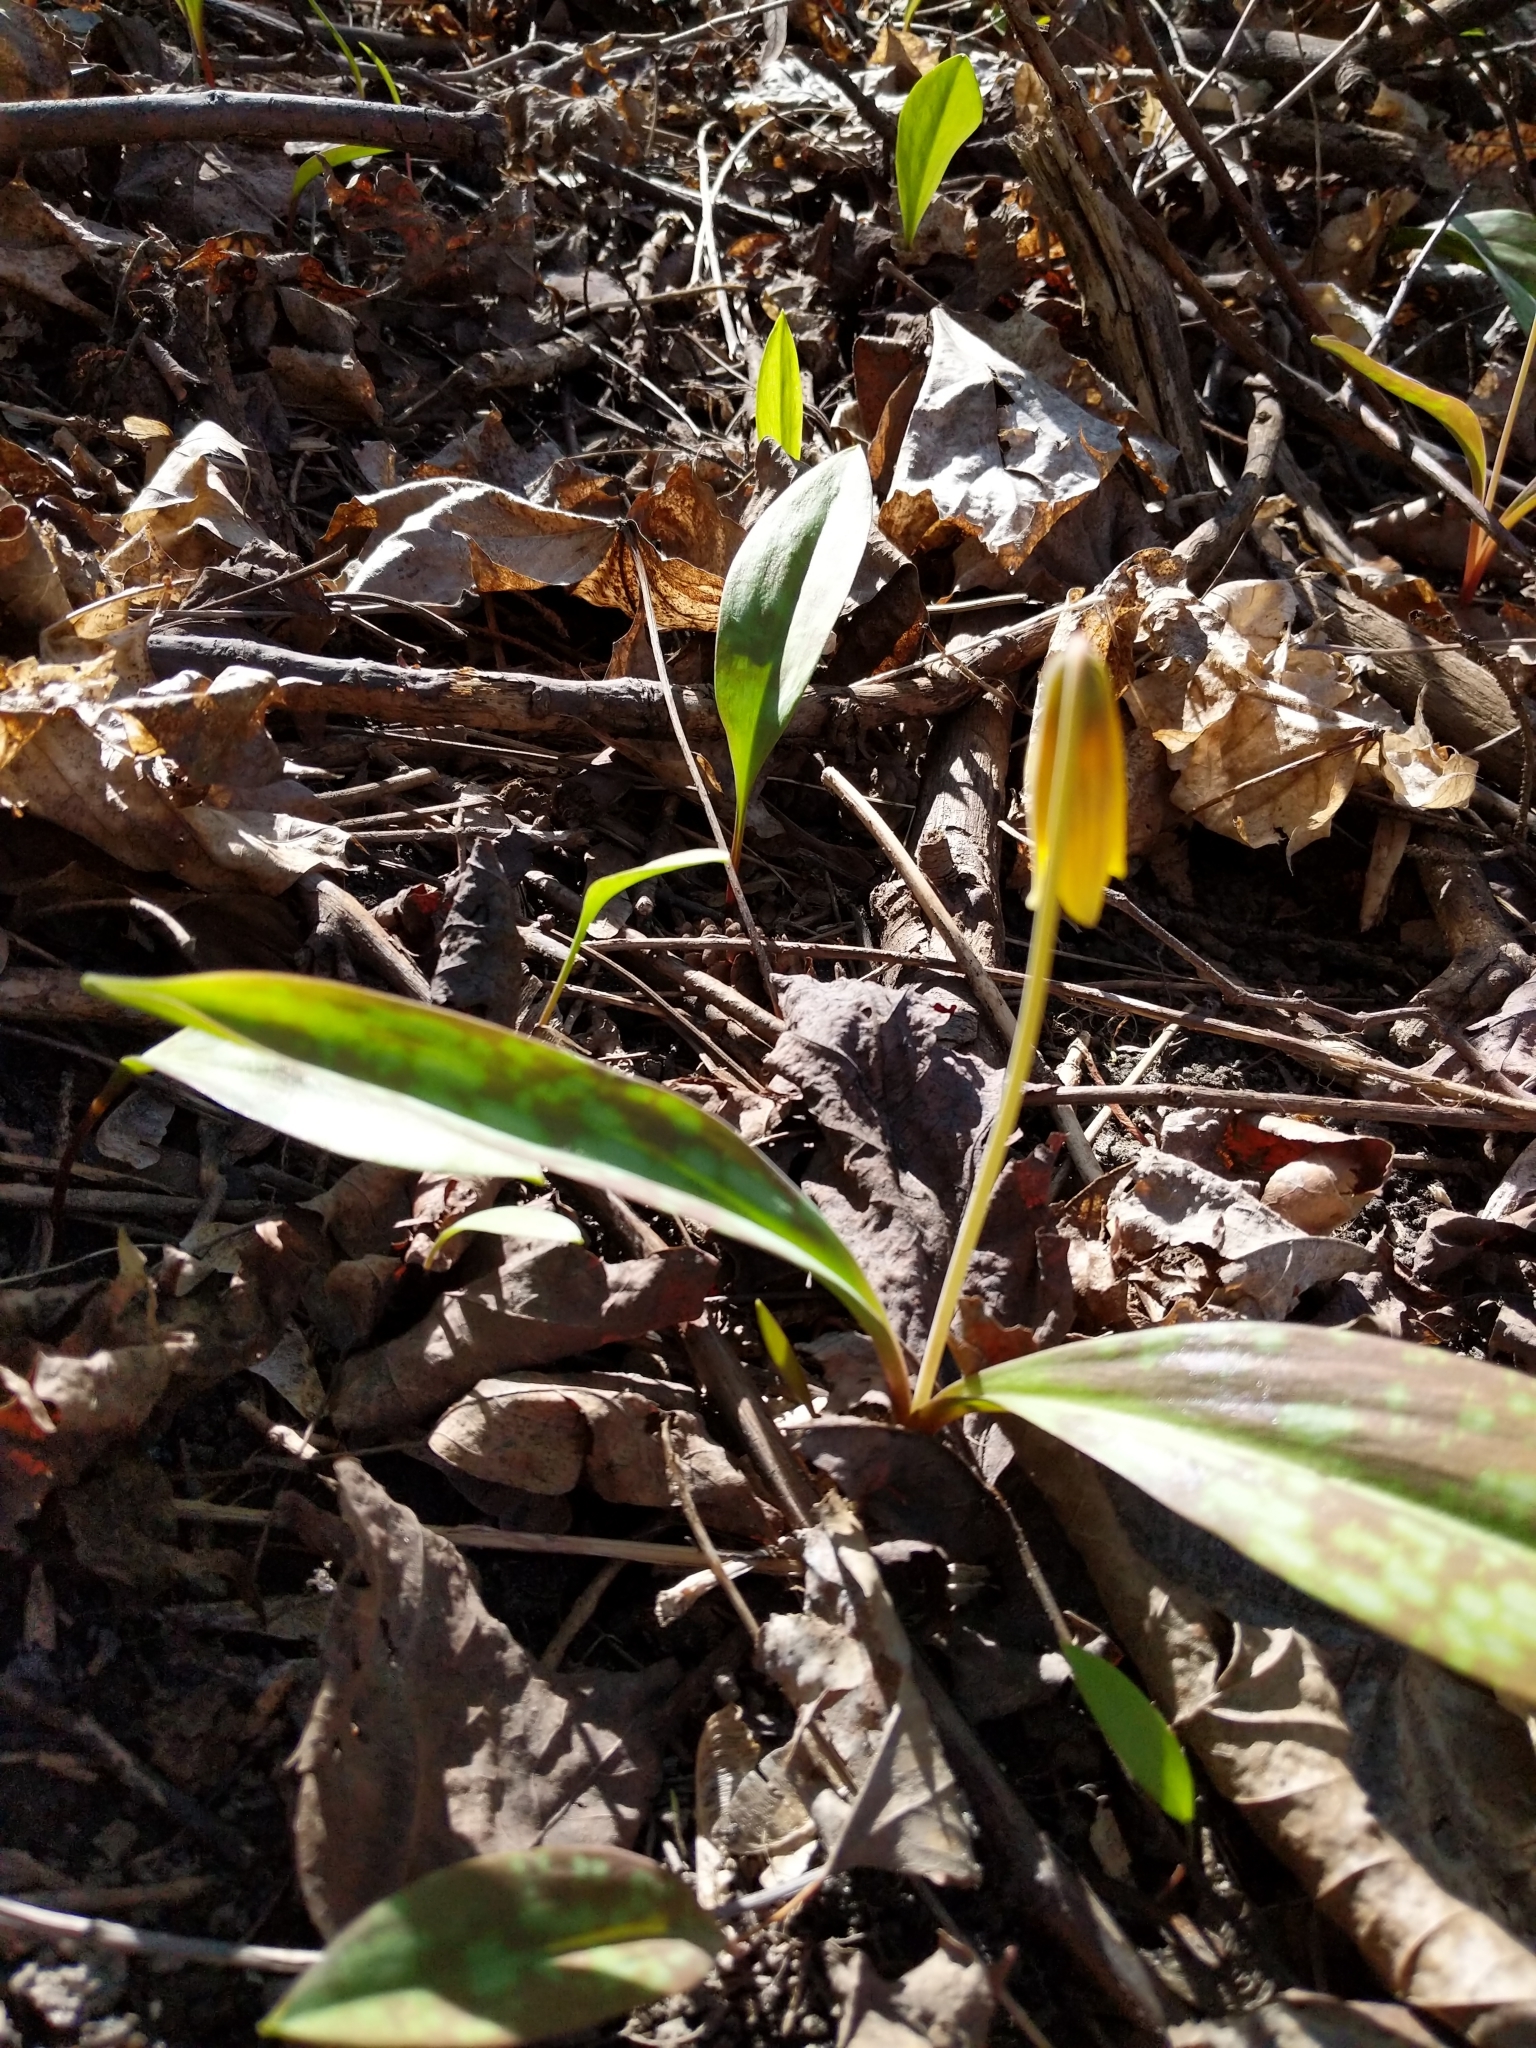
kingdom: Plantae
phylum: Tracheophyta
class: Liliopsida
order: Liliales
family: Liliaceae
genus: Erythronium
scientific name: Erythronium americanum
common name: Yellow adder's-tongue
